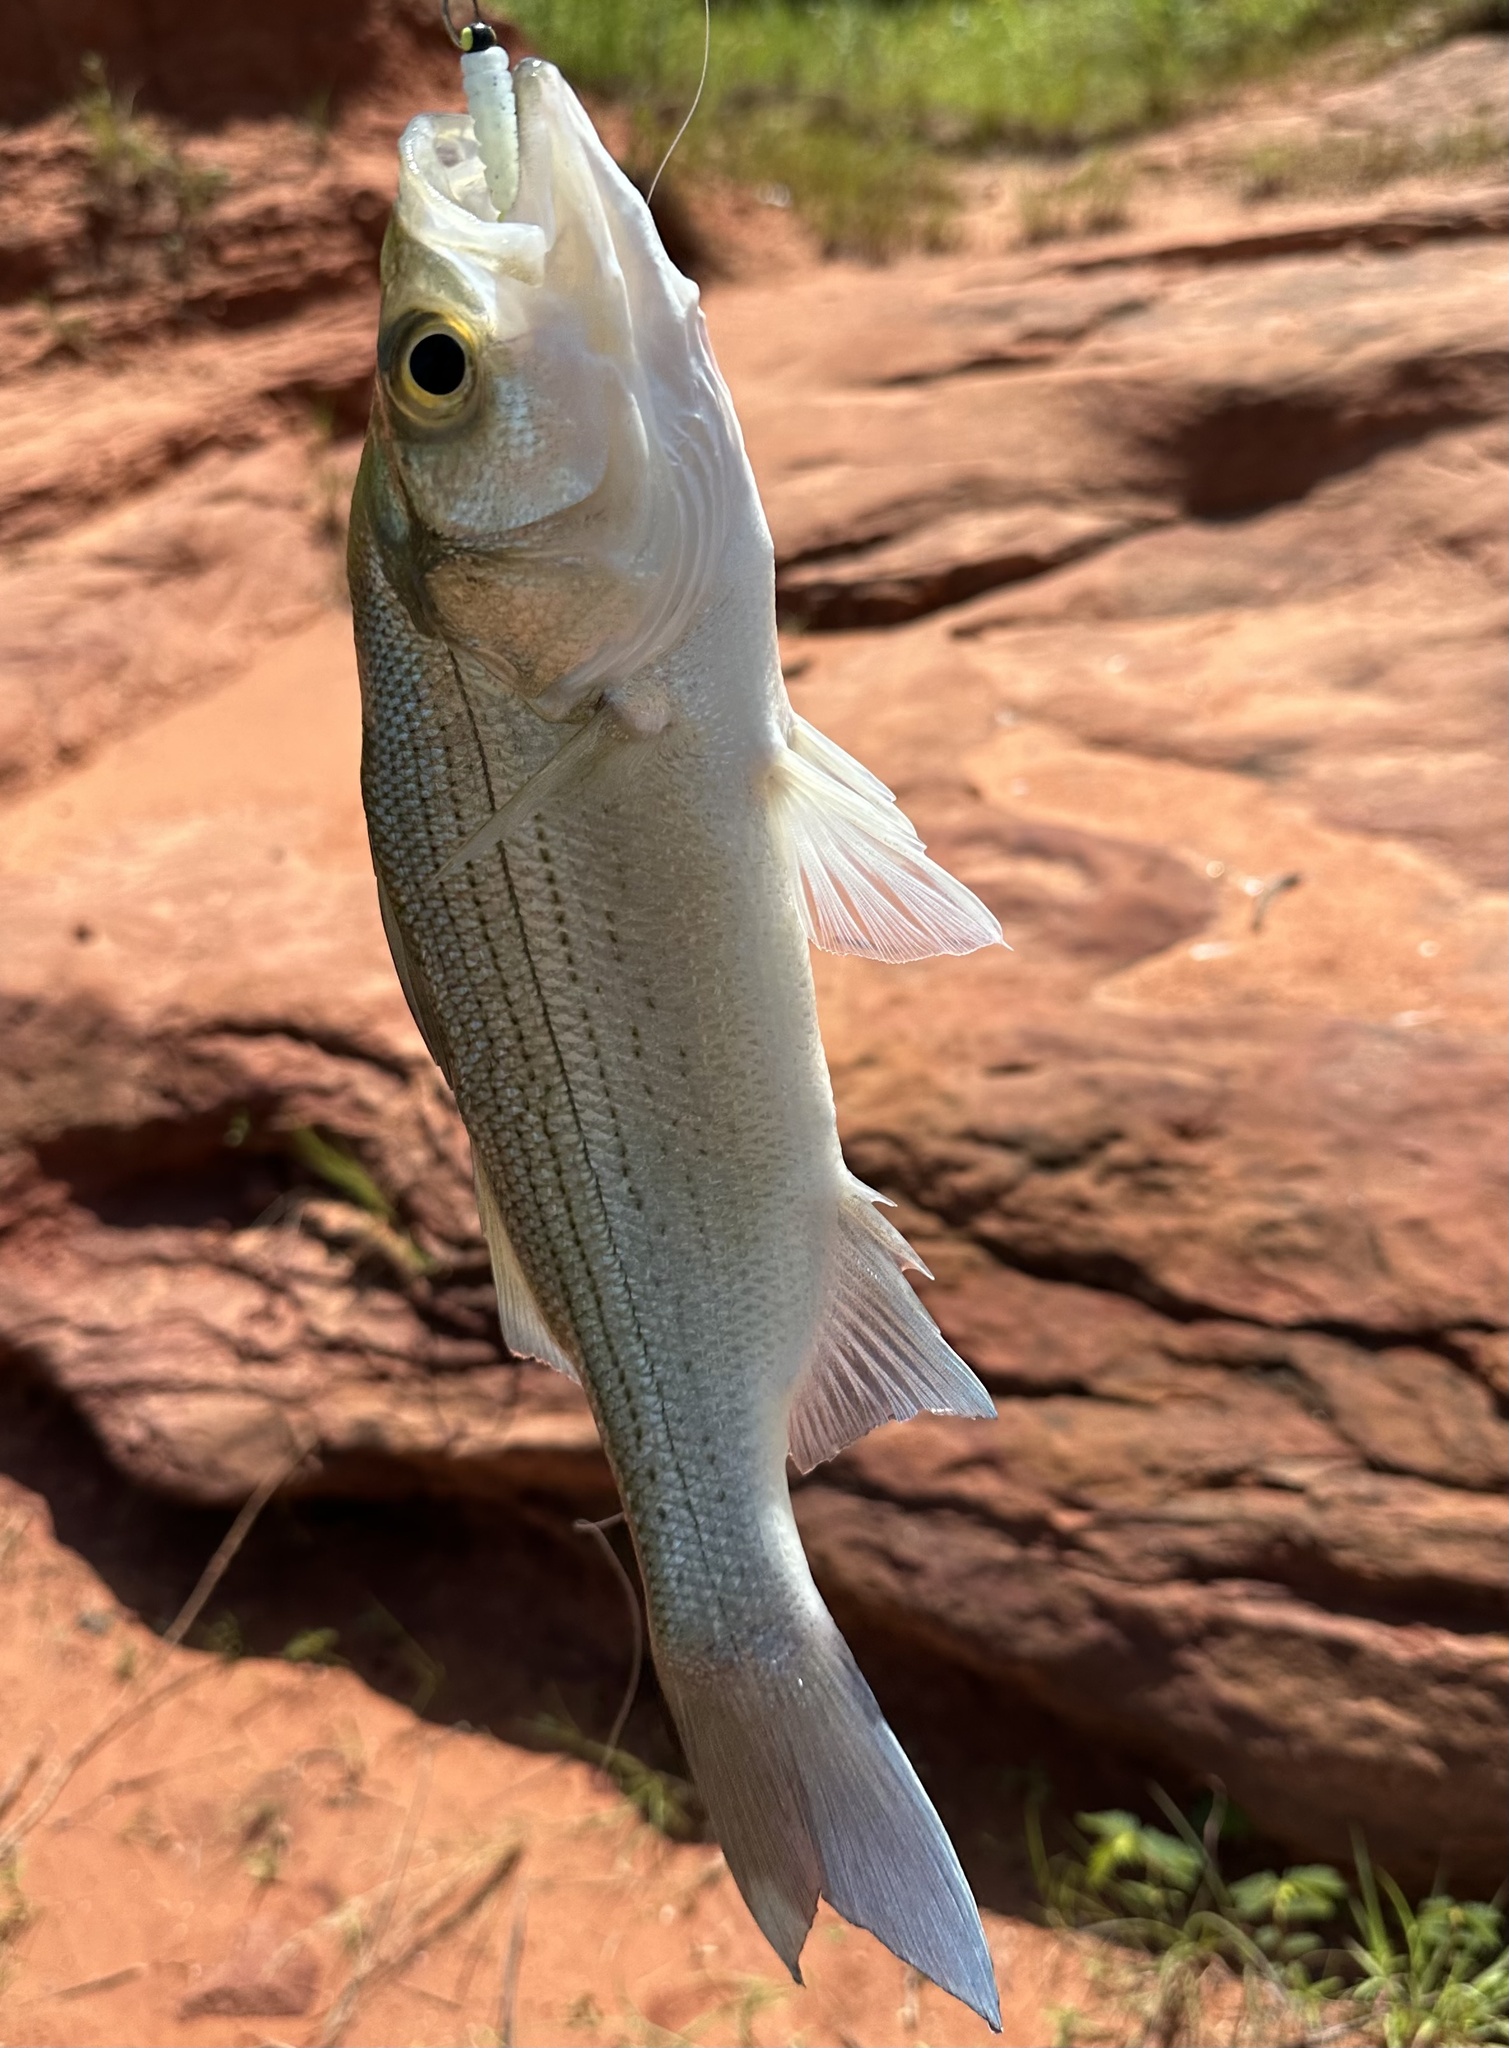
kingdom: Animalia
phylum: Chordata
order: Perciformes
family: Moronidae
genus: Morone
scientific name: Morone chrysops
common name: White bass
